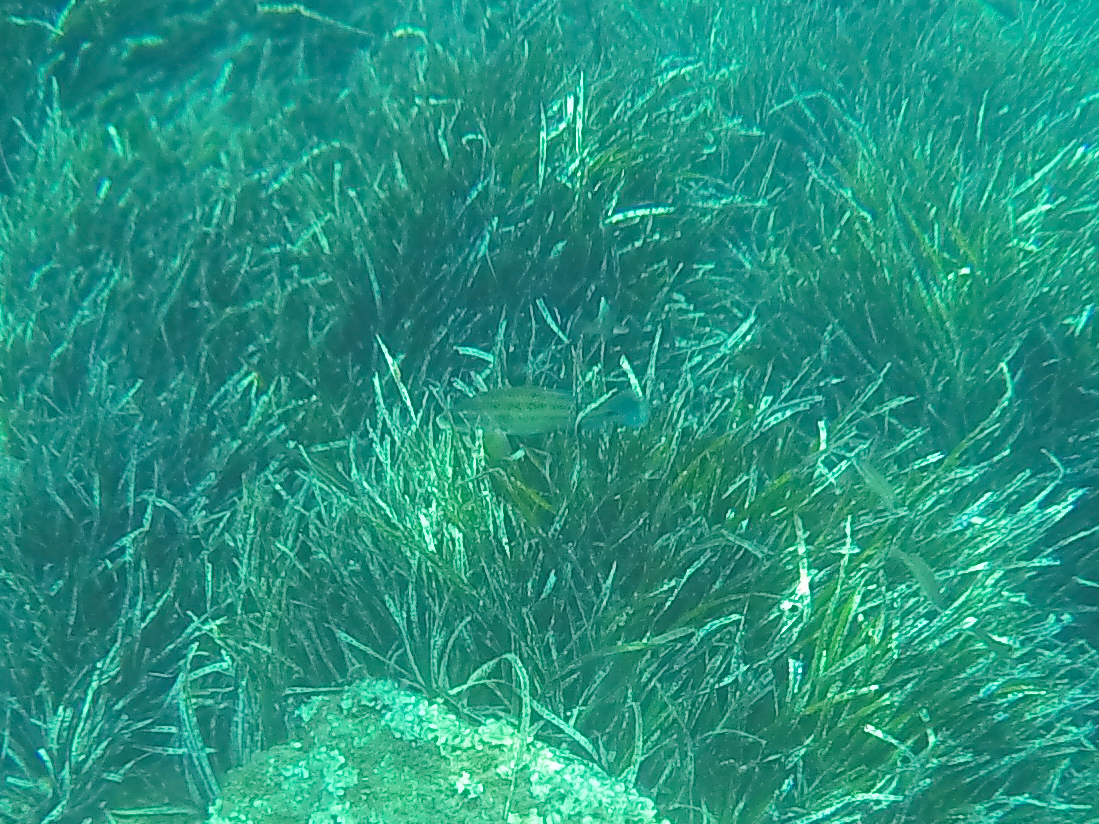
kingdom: Animalia
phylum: Chordata
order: Perciformes
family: Labridae
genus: Symphodus
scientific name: Symphodus tinca
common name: Peacock wrasse
